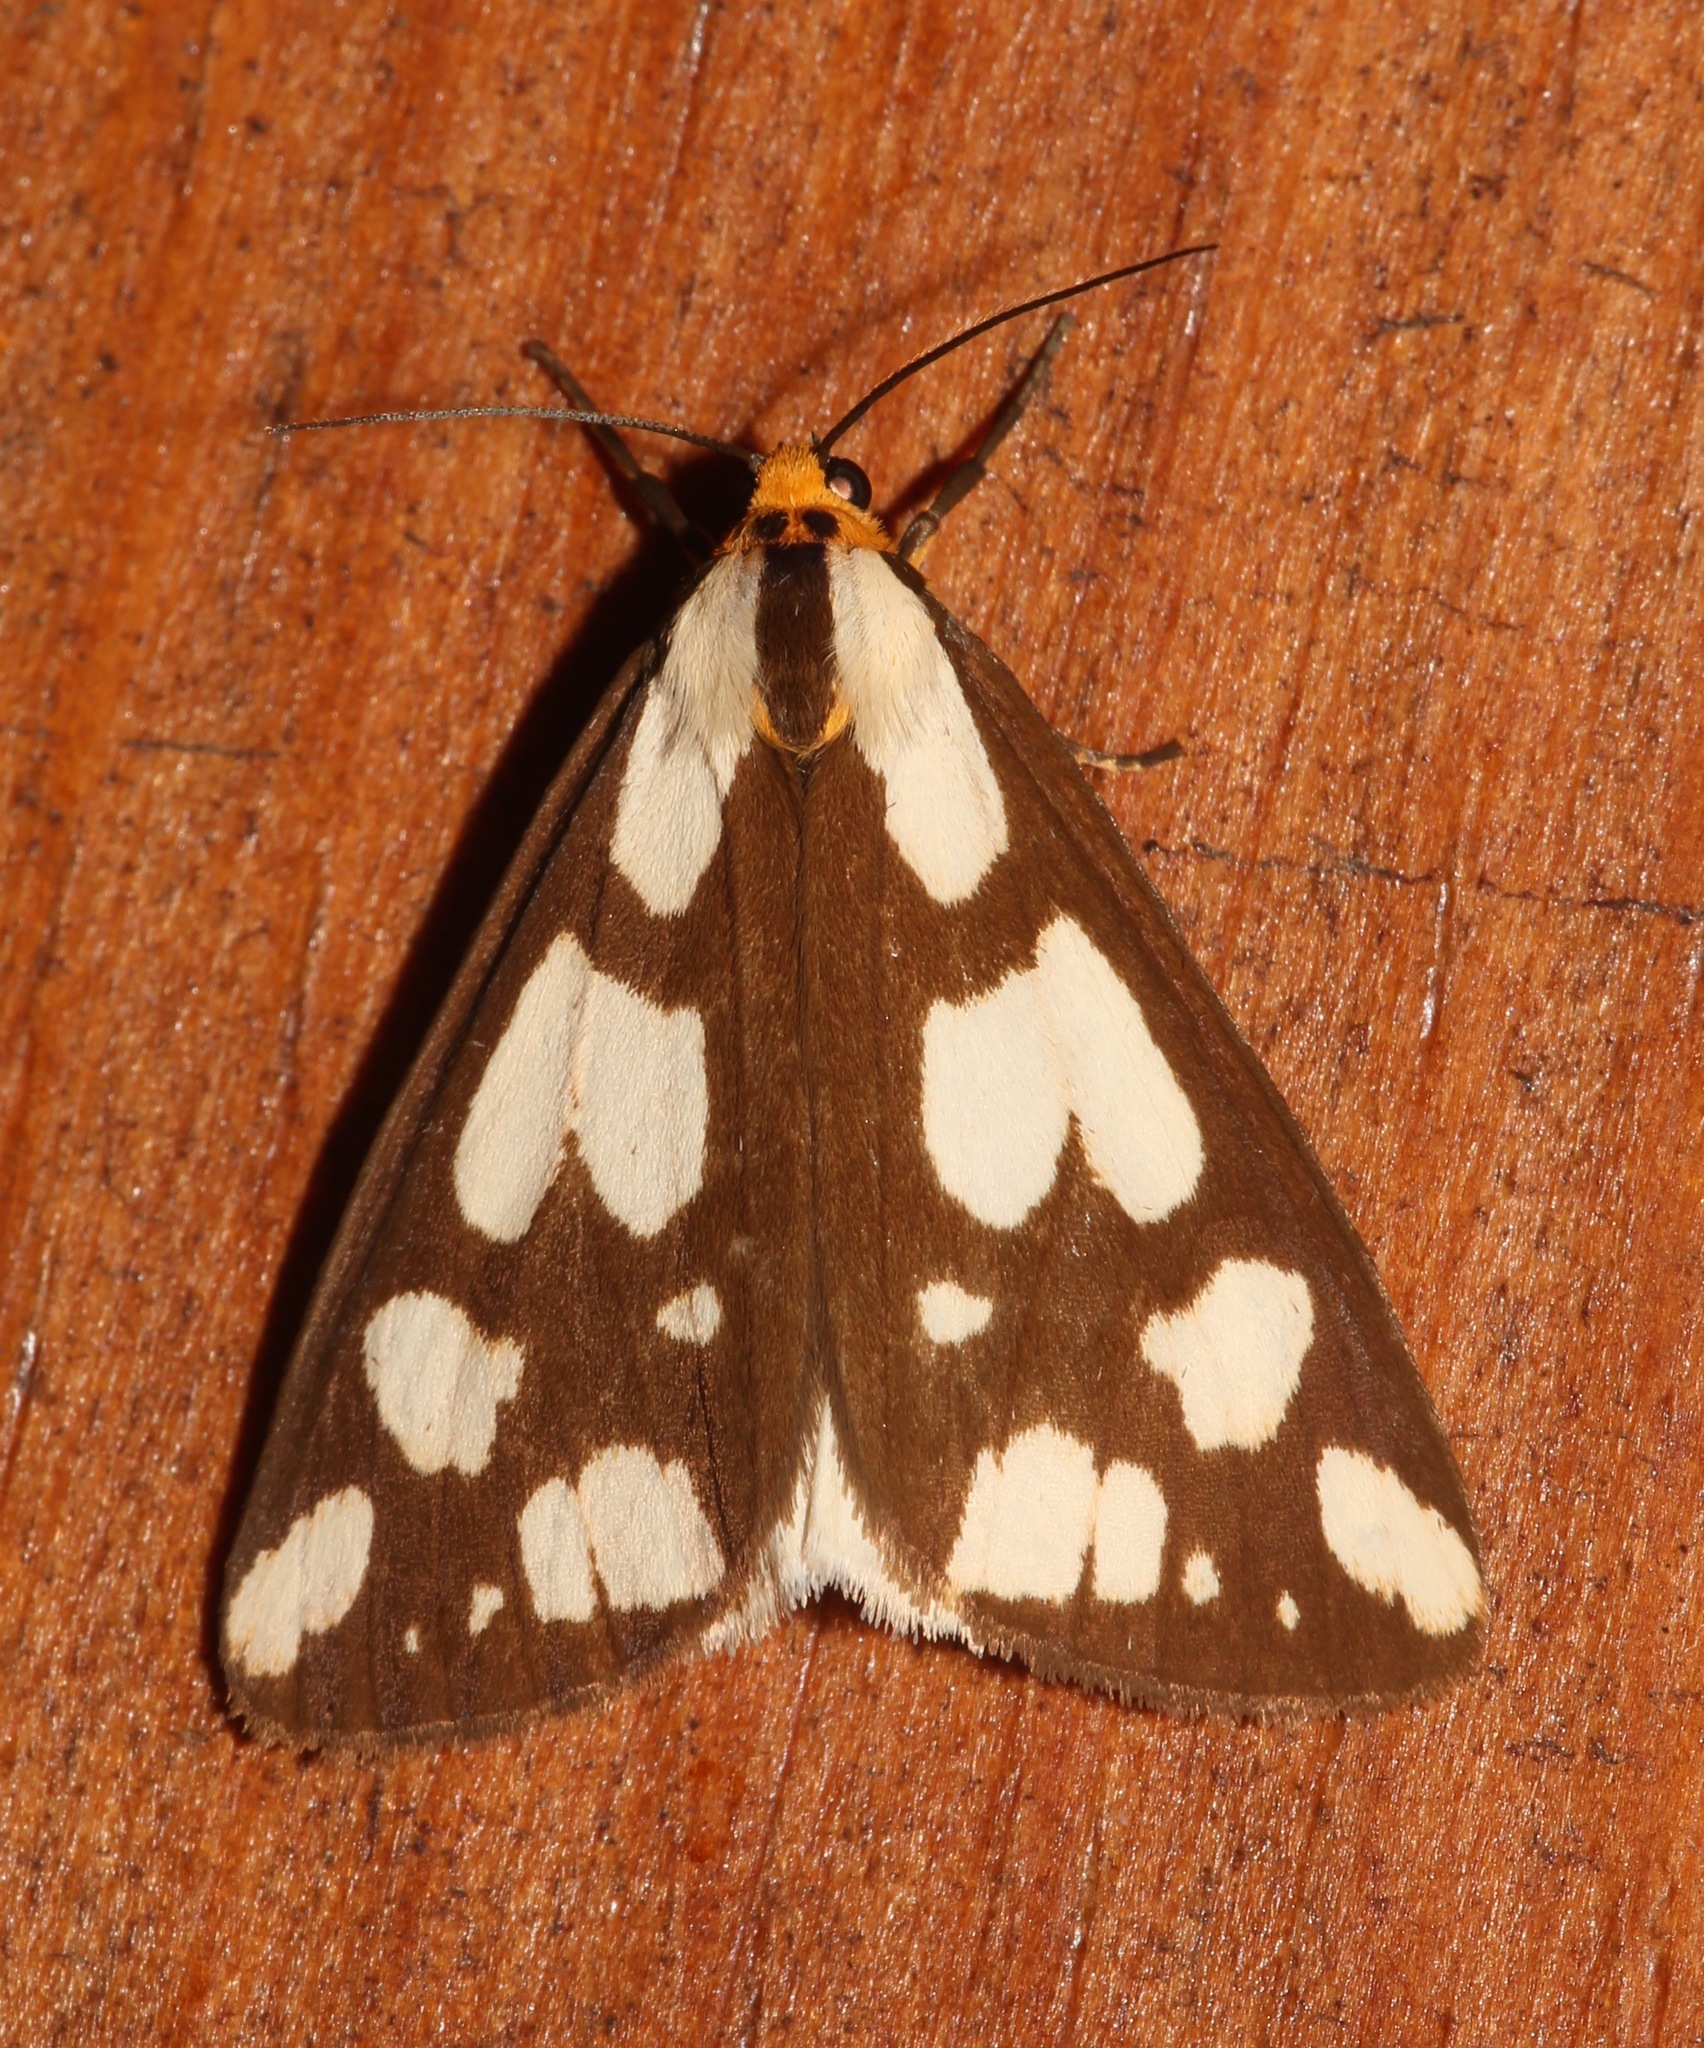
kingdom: Animalia
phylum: Arthropoda
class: Insecta
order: Lepidoptera
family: Erebidae
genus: Haploa
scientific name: Haploa confusa
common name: Confused haploa moth
